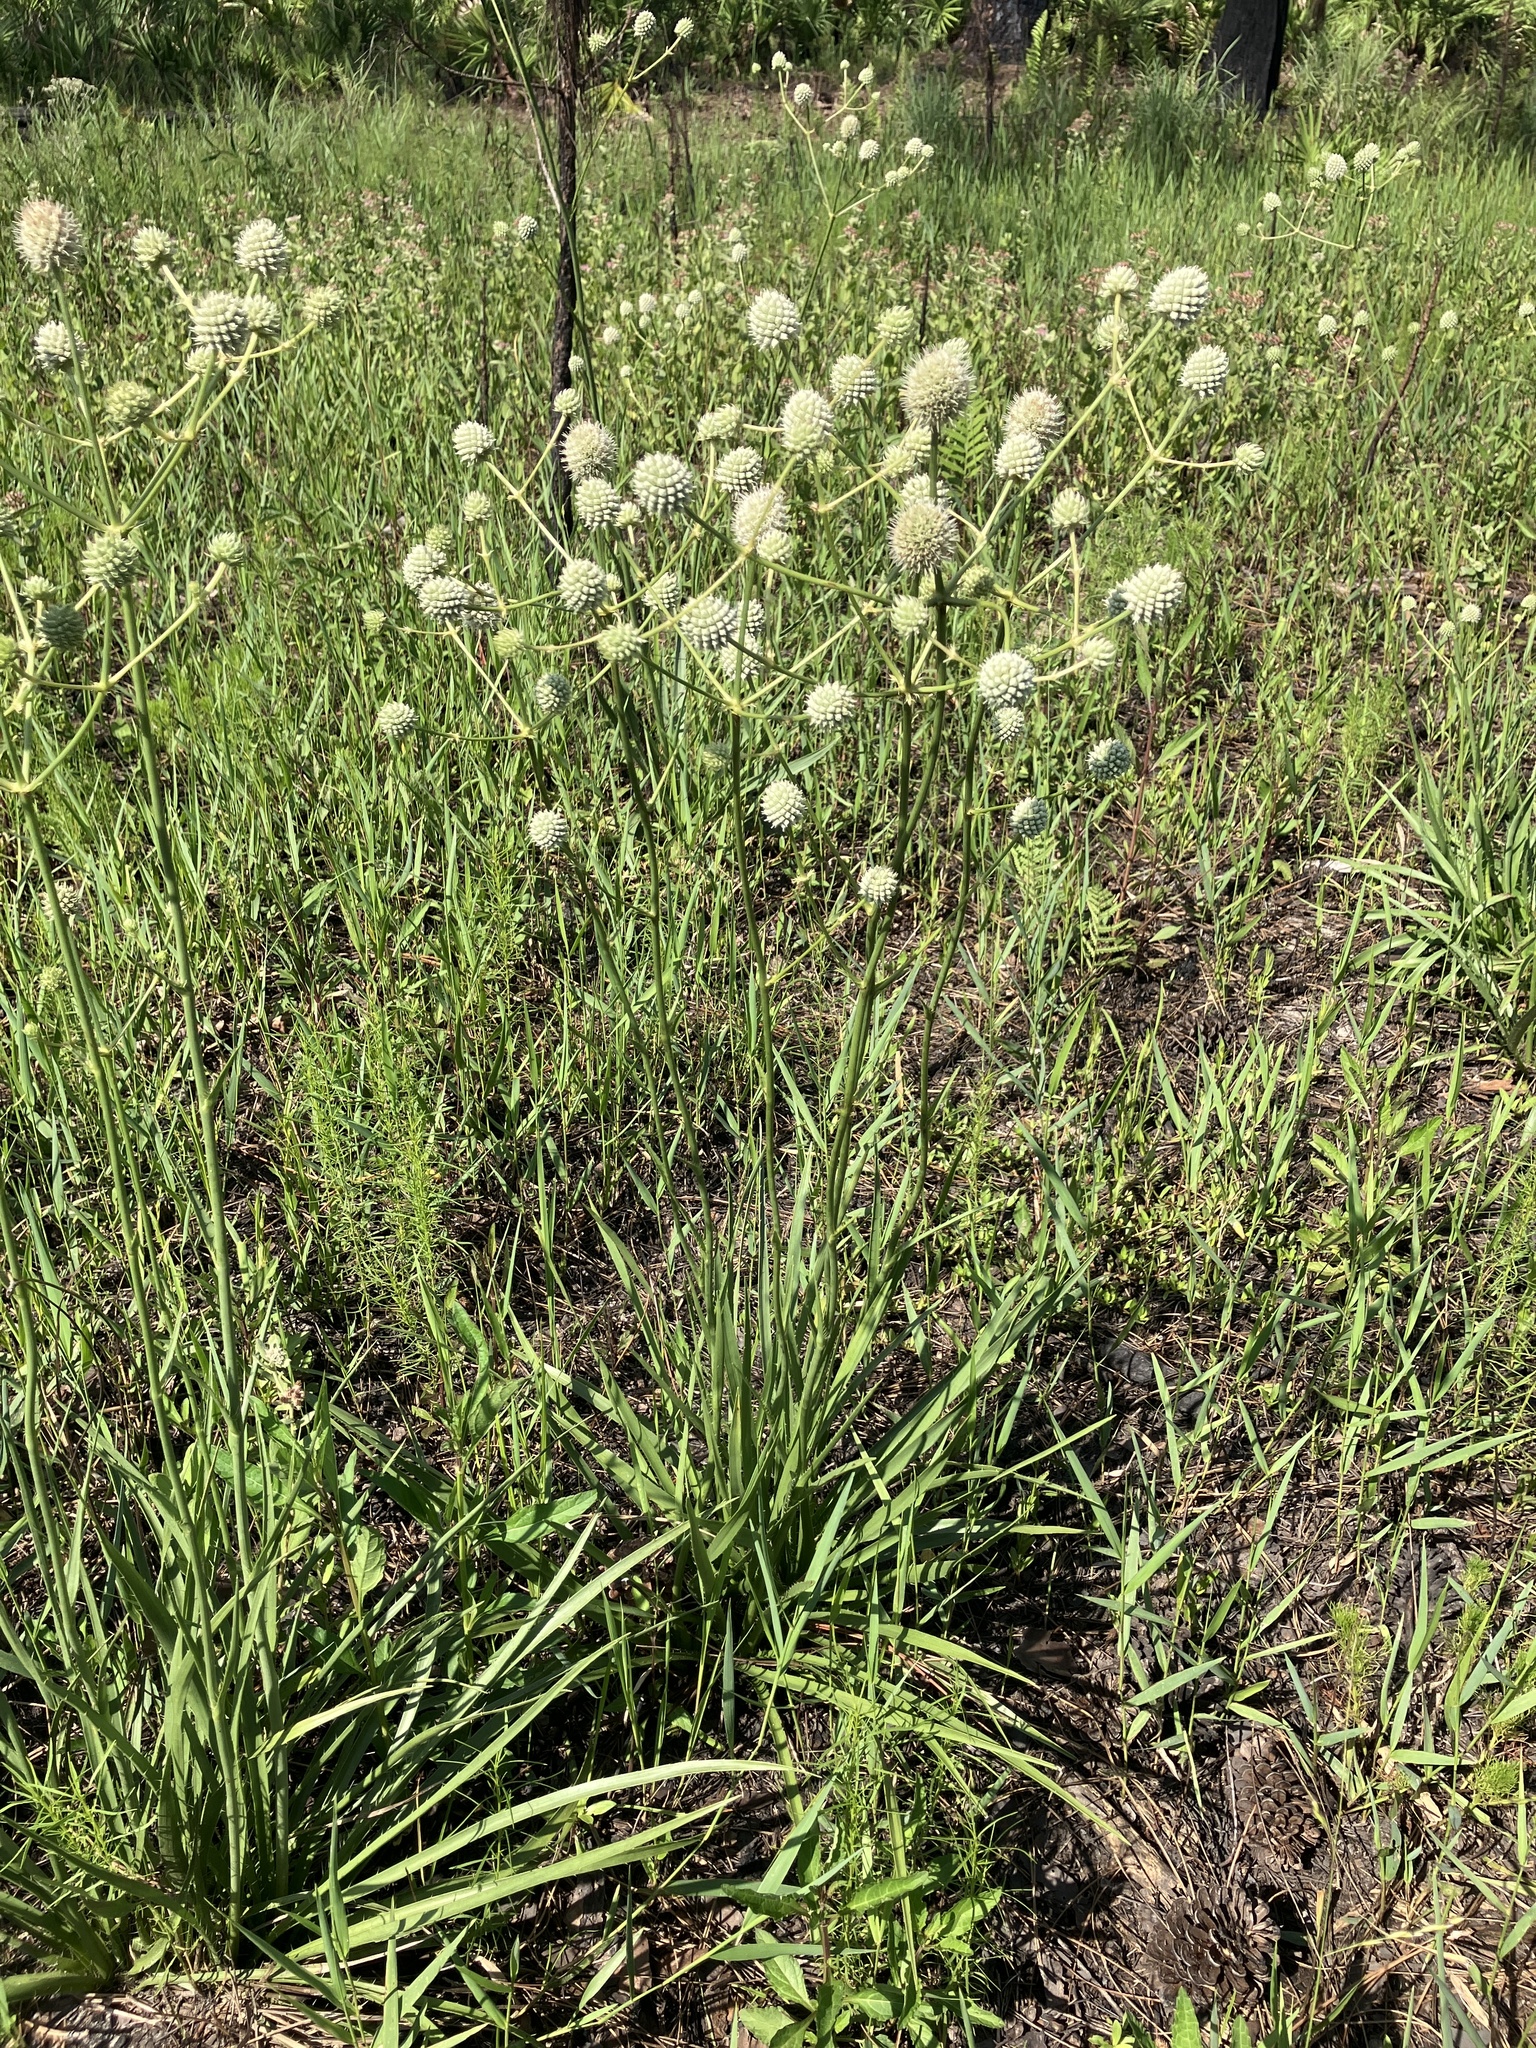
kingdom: Plantae
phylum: Tracheophyta
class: Magnoliopsida
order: Apiales
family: Apiaceae
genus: Eryngium
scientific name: Eryngium yuccifolium
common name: Button eryngo
